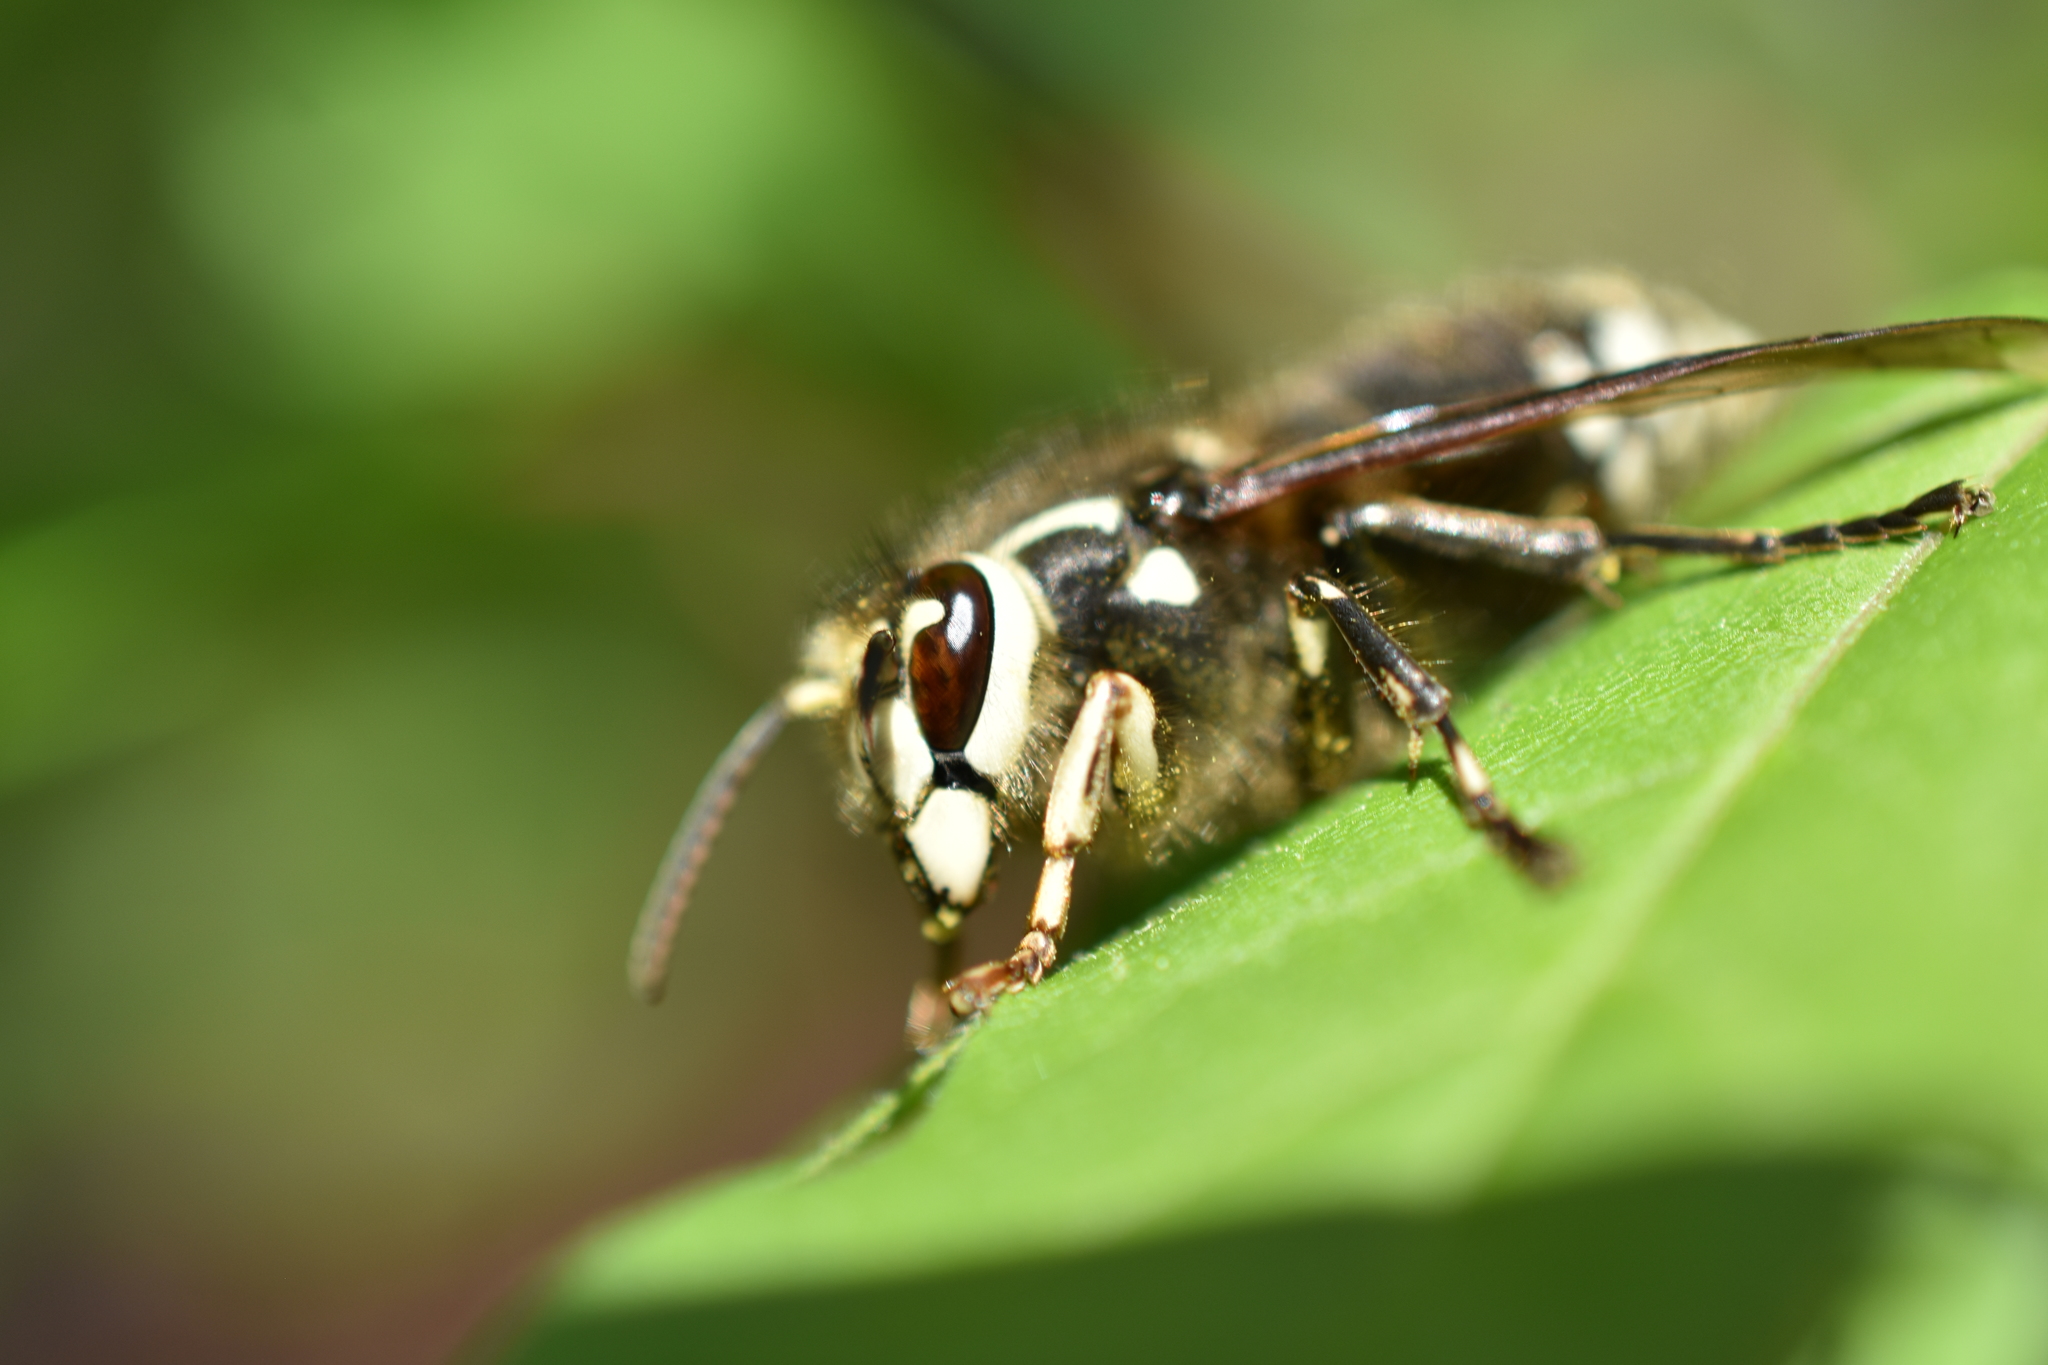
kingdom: Animalia
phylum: Arthropoda
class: Insecta
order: Hymenoptera
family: Vespidae
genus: Dolichovespula
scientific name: Dolichovespula maculata
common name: Bald-faced hornet
